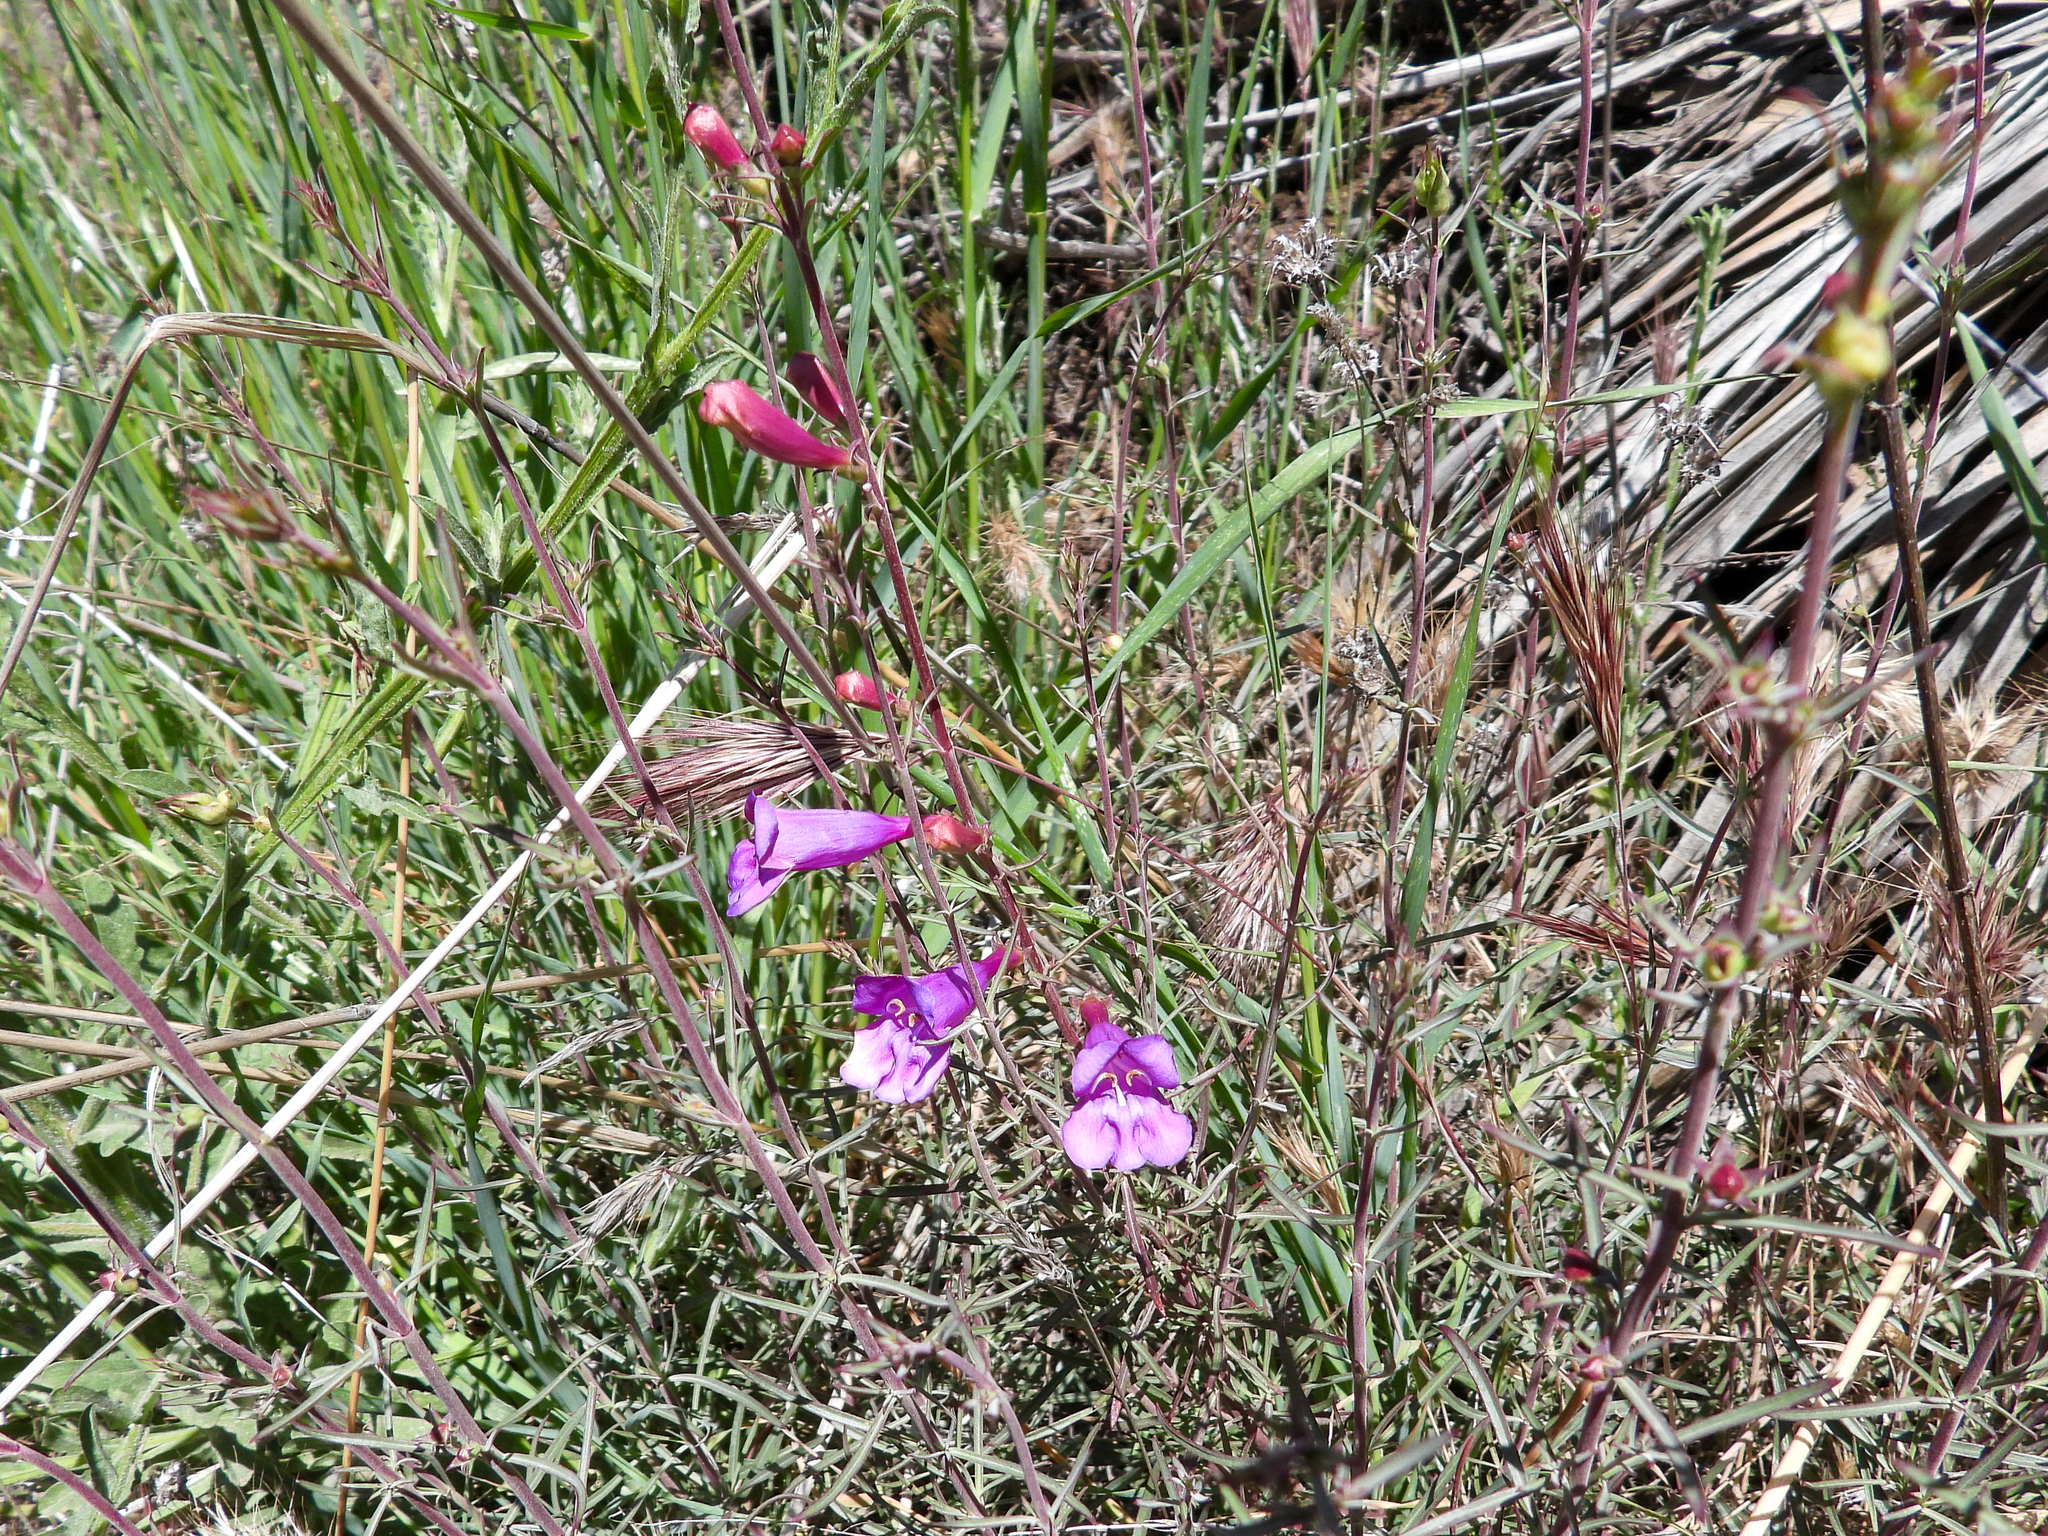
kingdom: Plantae
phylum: Tracheophyta
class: Magnoliopsida
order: Lamiales
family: Plantaginaceae
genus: Penstemon
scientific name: Penstemon heterophyllus
